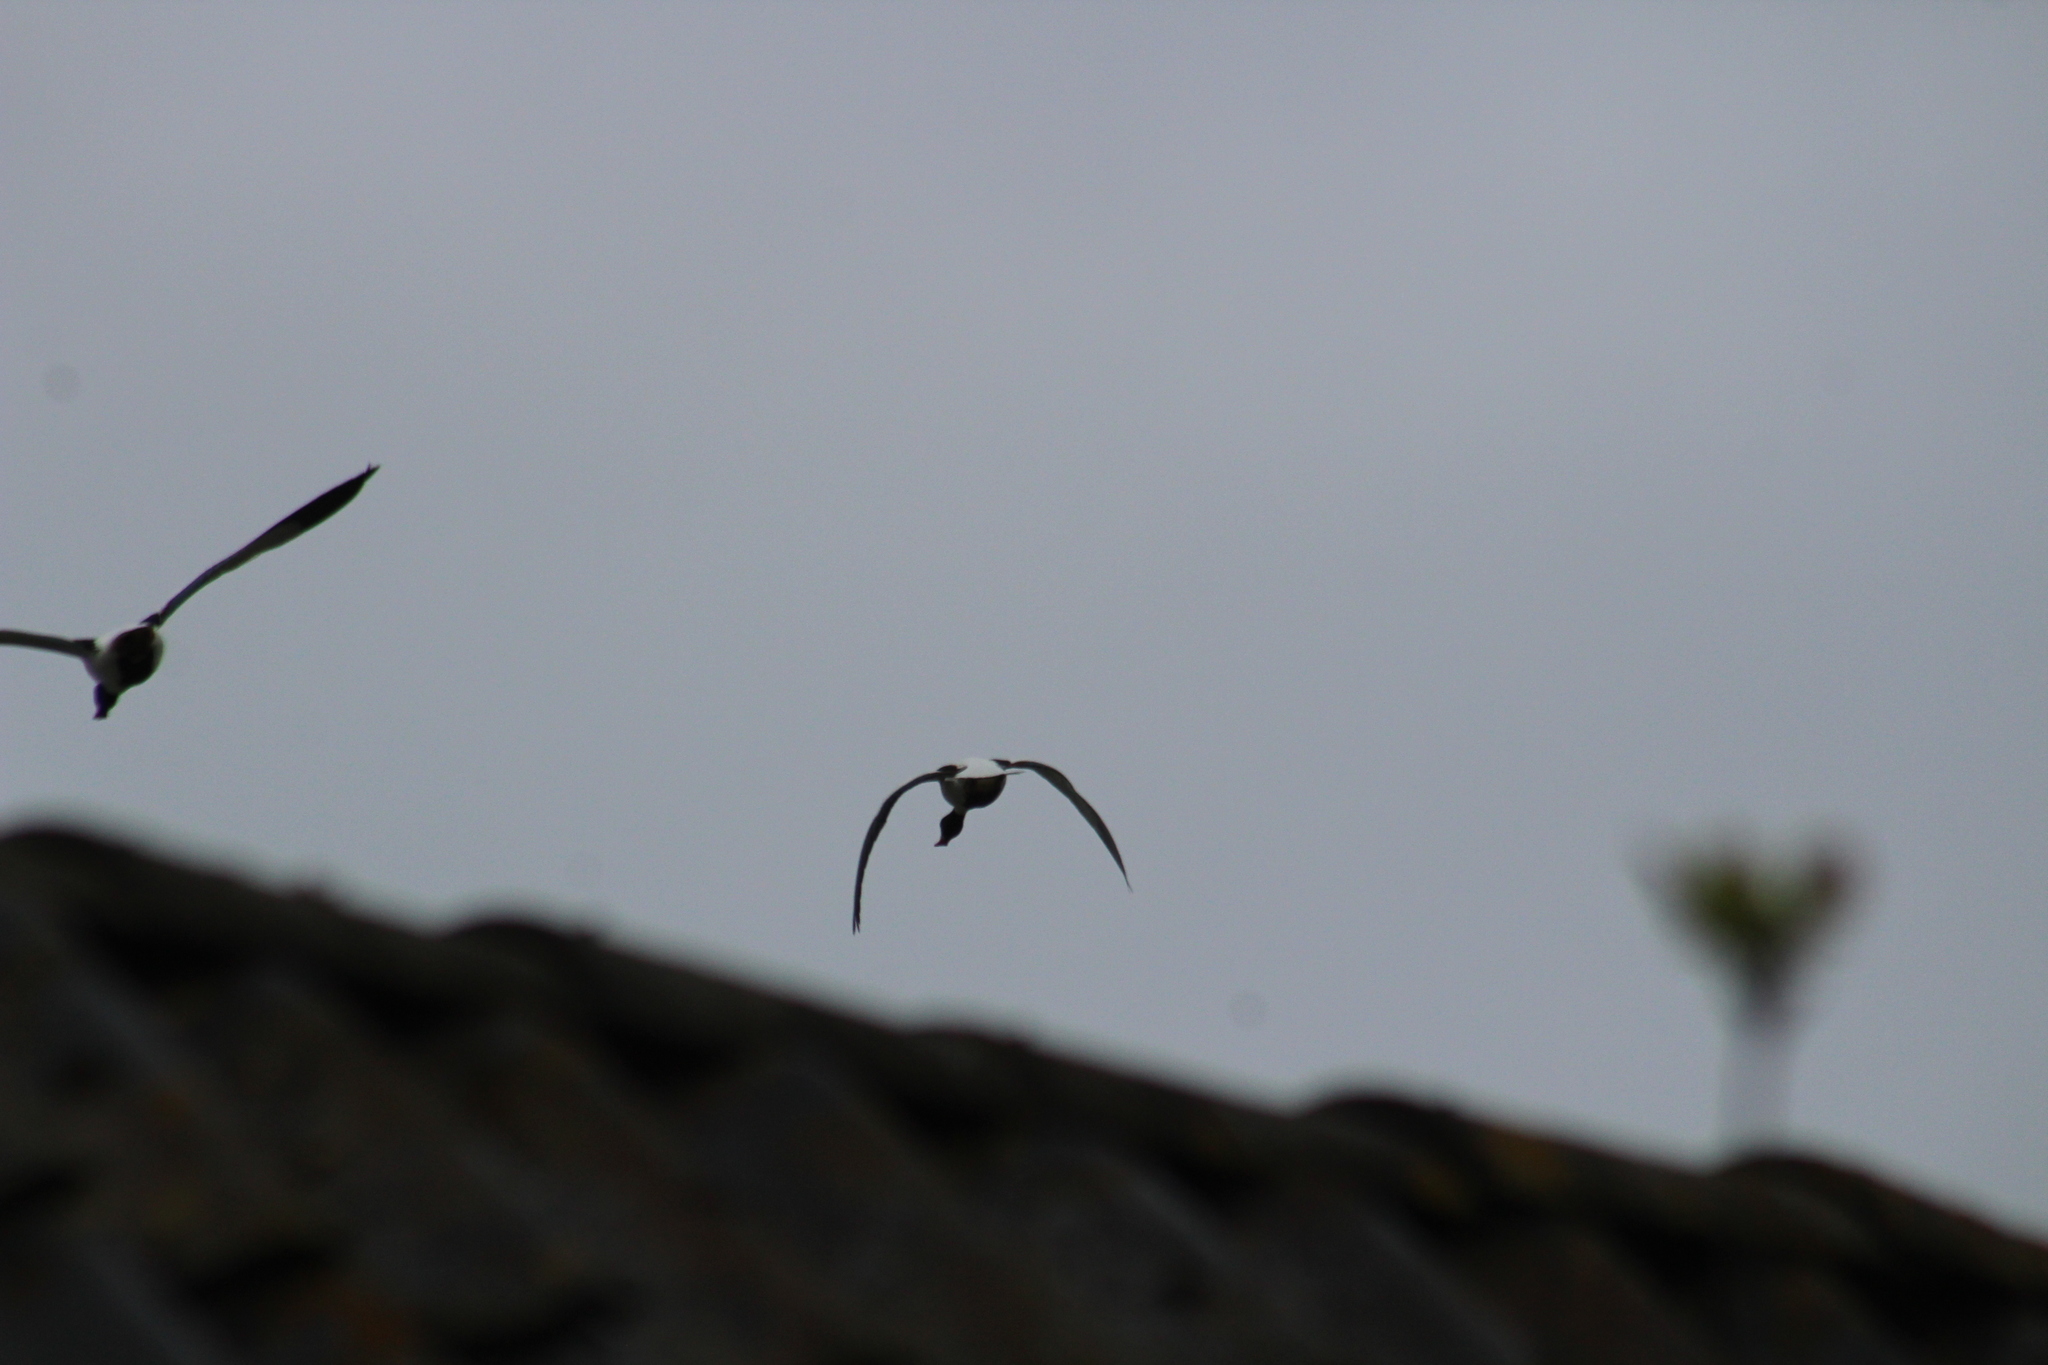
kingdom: Animalia
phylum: Chordata
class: Aves
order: Anseriformes
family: Anatidae
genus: Tadorna
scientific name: Tadorna tadorna
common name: Common shelduck
